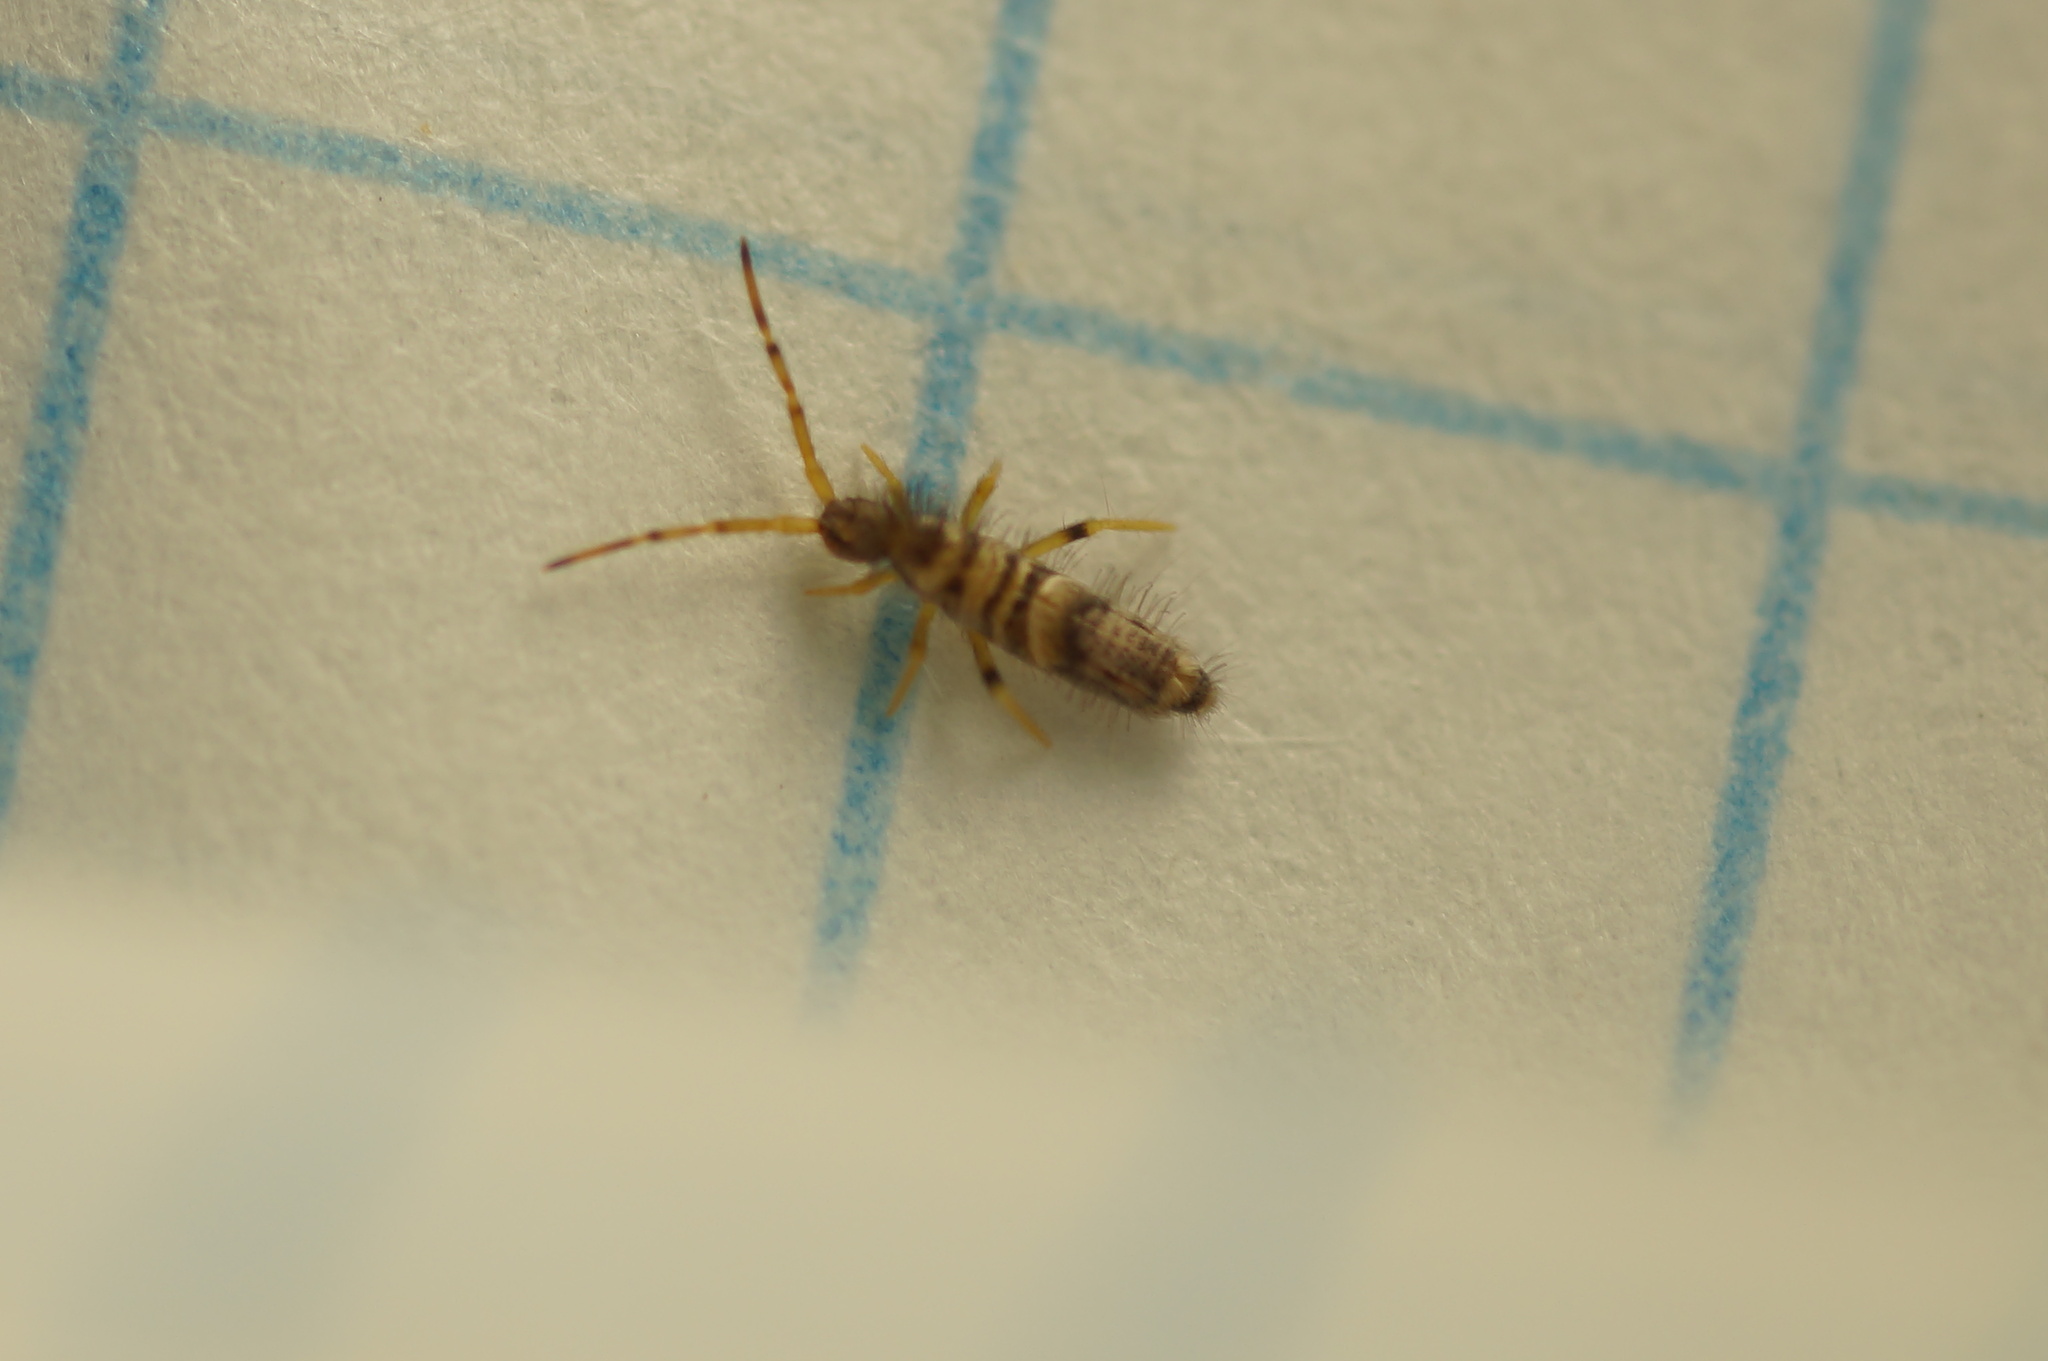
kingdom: Animalia
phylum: Arthropoda
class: Collembola
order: Entomobryomorpha
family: Entomobryidae
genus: Entomobrya
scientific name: Entomobrya dorsalis
